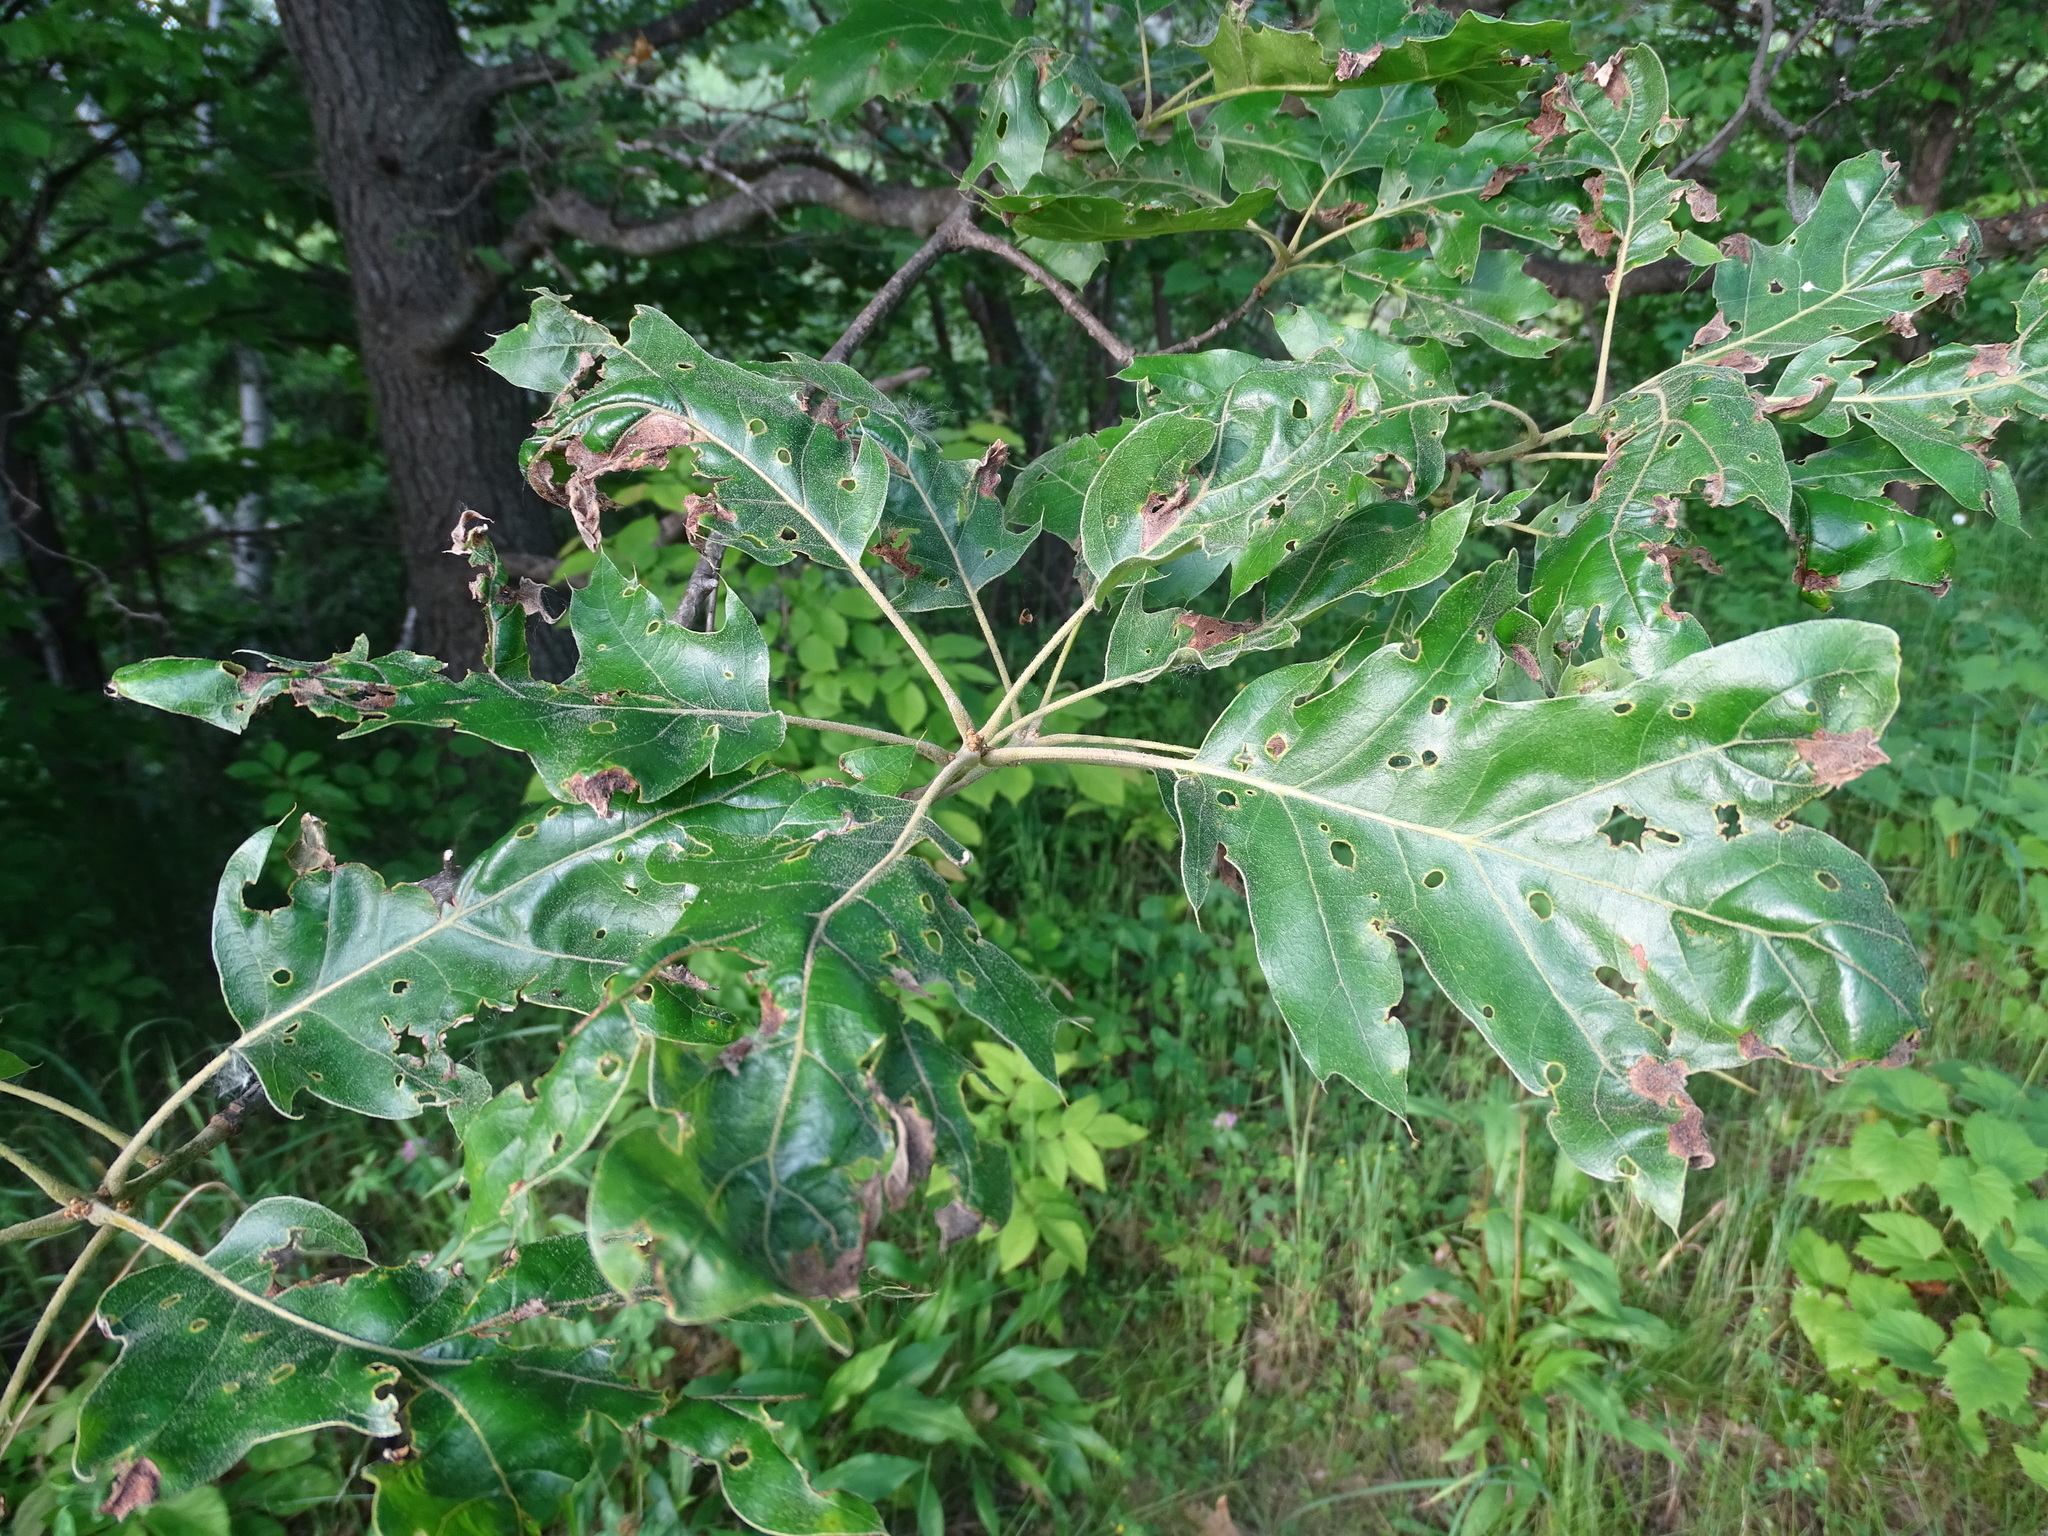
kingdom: Plantae
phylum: Tracheophyta
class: Magnoliopsida
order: Fagales
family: Fagaceae
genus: Quercus
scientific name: Quercus velutina
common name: Black oak
